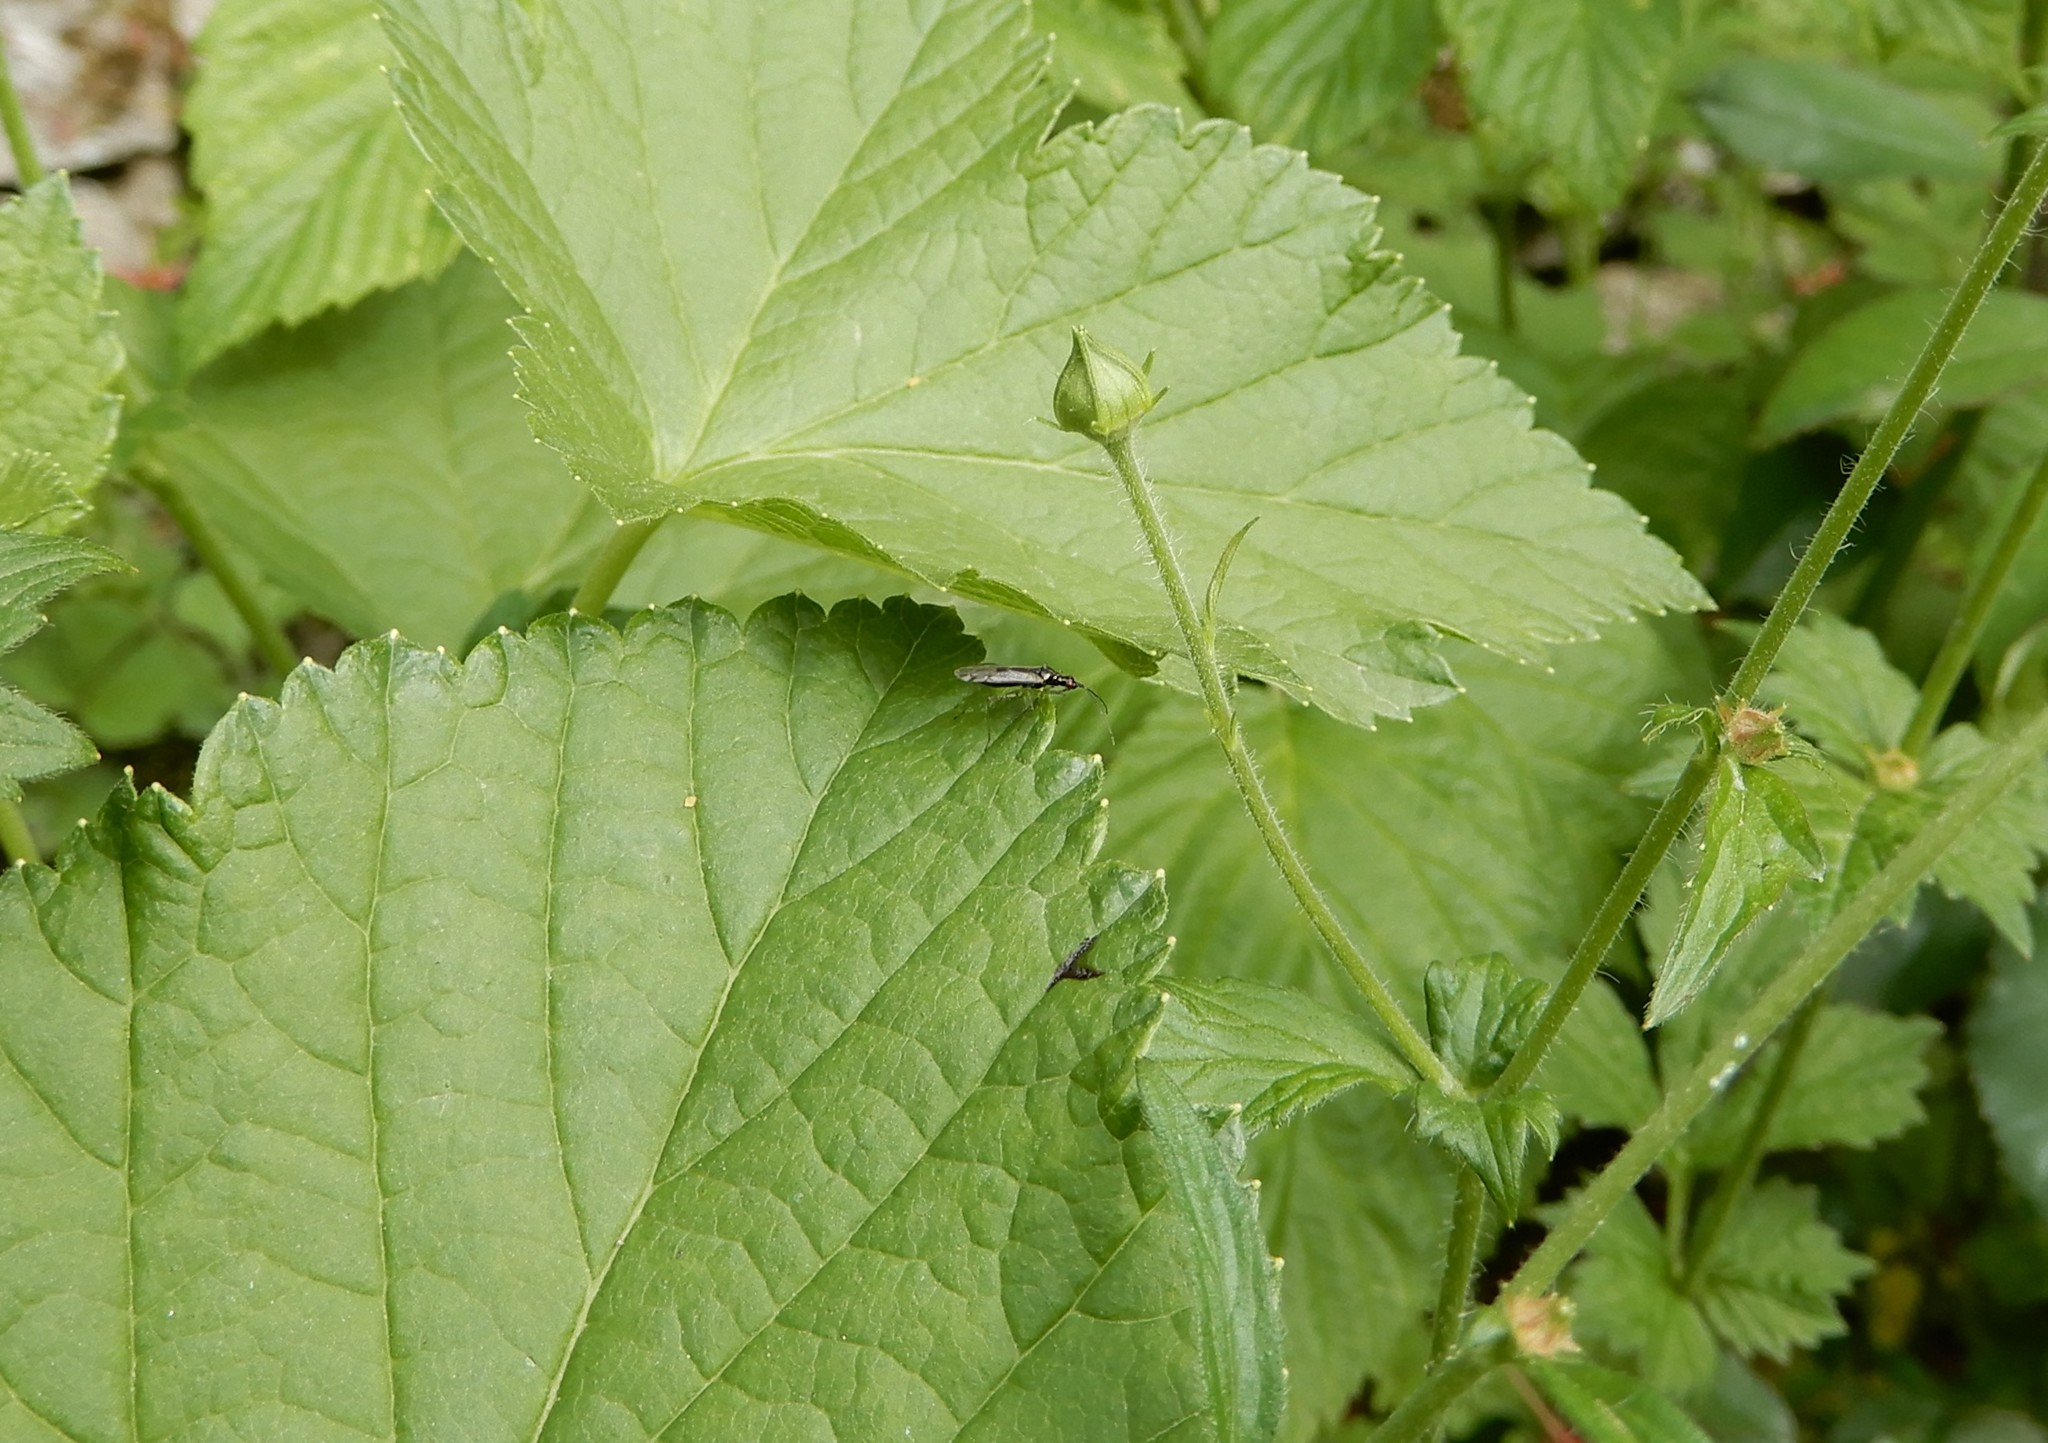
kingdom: Animalia
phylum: Arthropoda
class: Insecta
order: Hemiptera
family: Miridae
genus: Dicyphus
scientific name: Dicyphus errans
